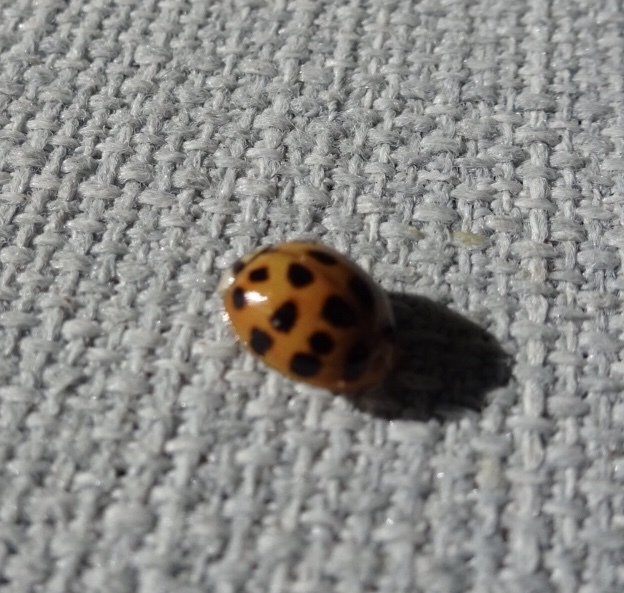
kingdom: Animalia
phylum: Arthropoda
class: Insecta
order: Coleoptera
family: Coccinellidae
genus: Harmonia
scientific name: Harmonia axyridis
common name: Harlequin ladybird
